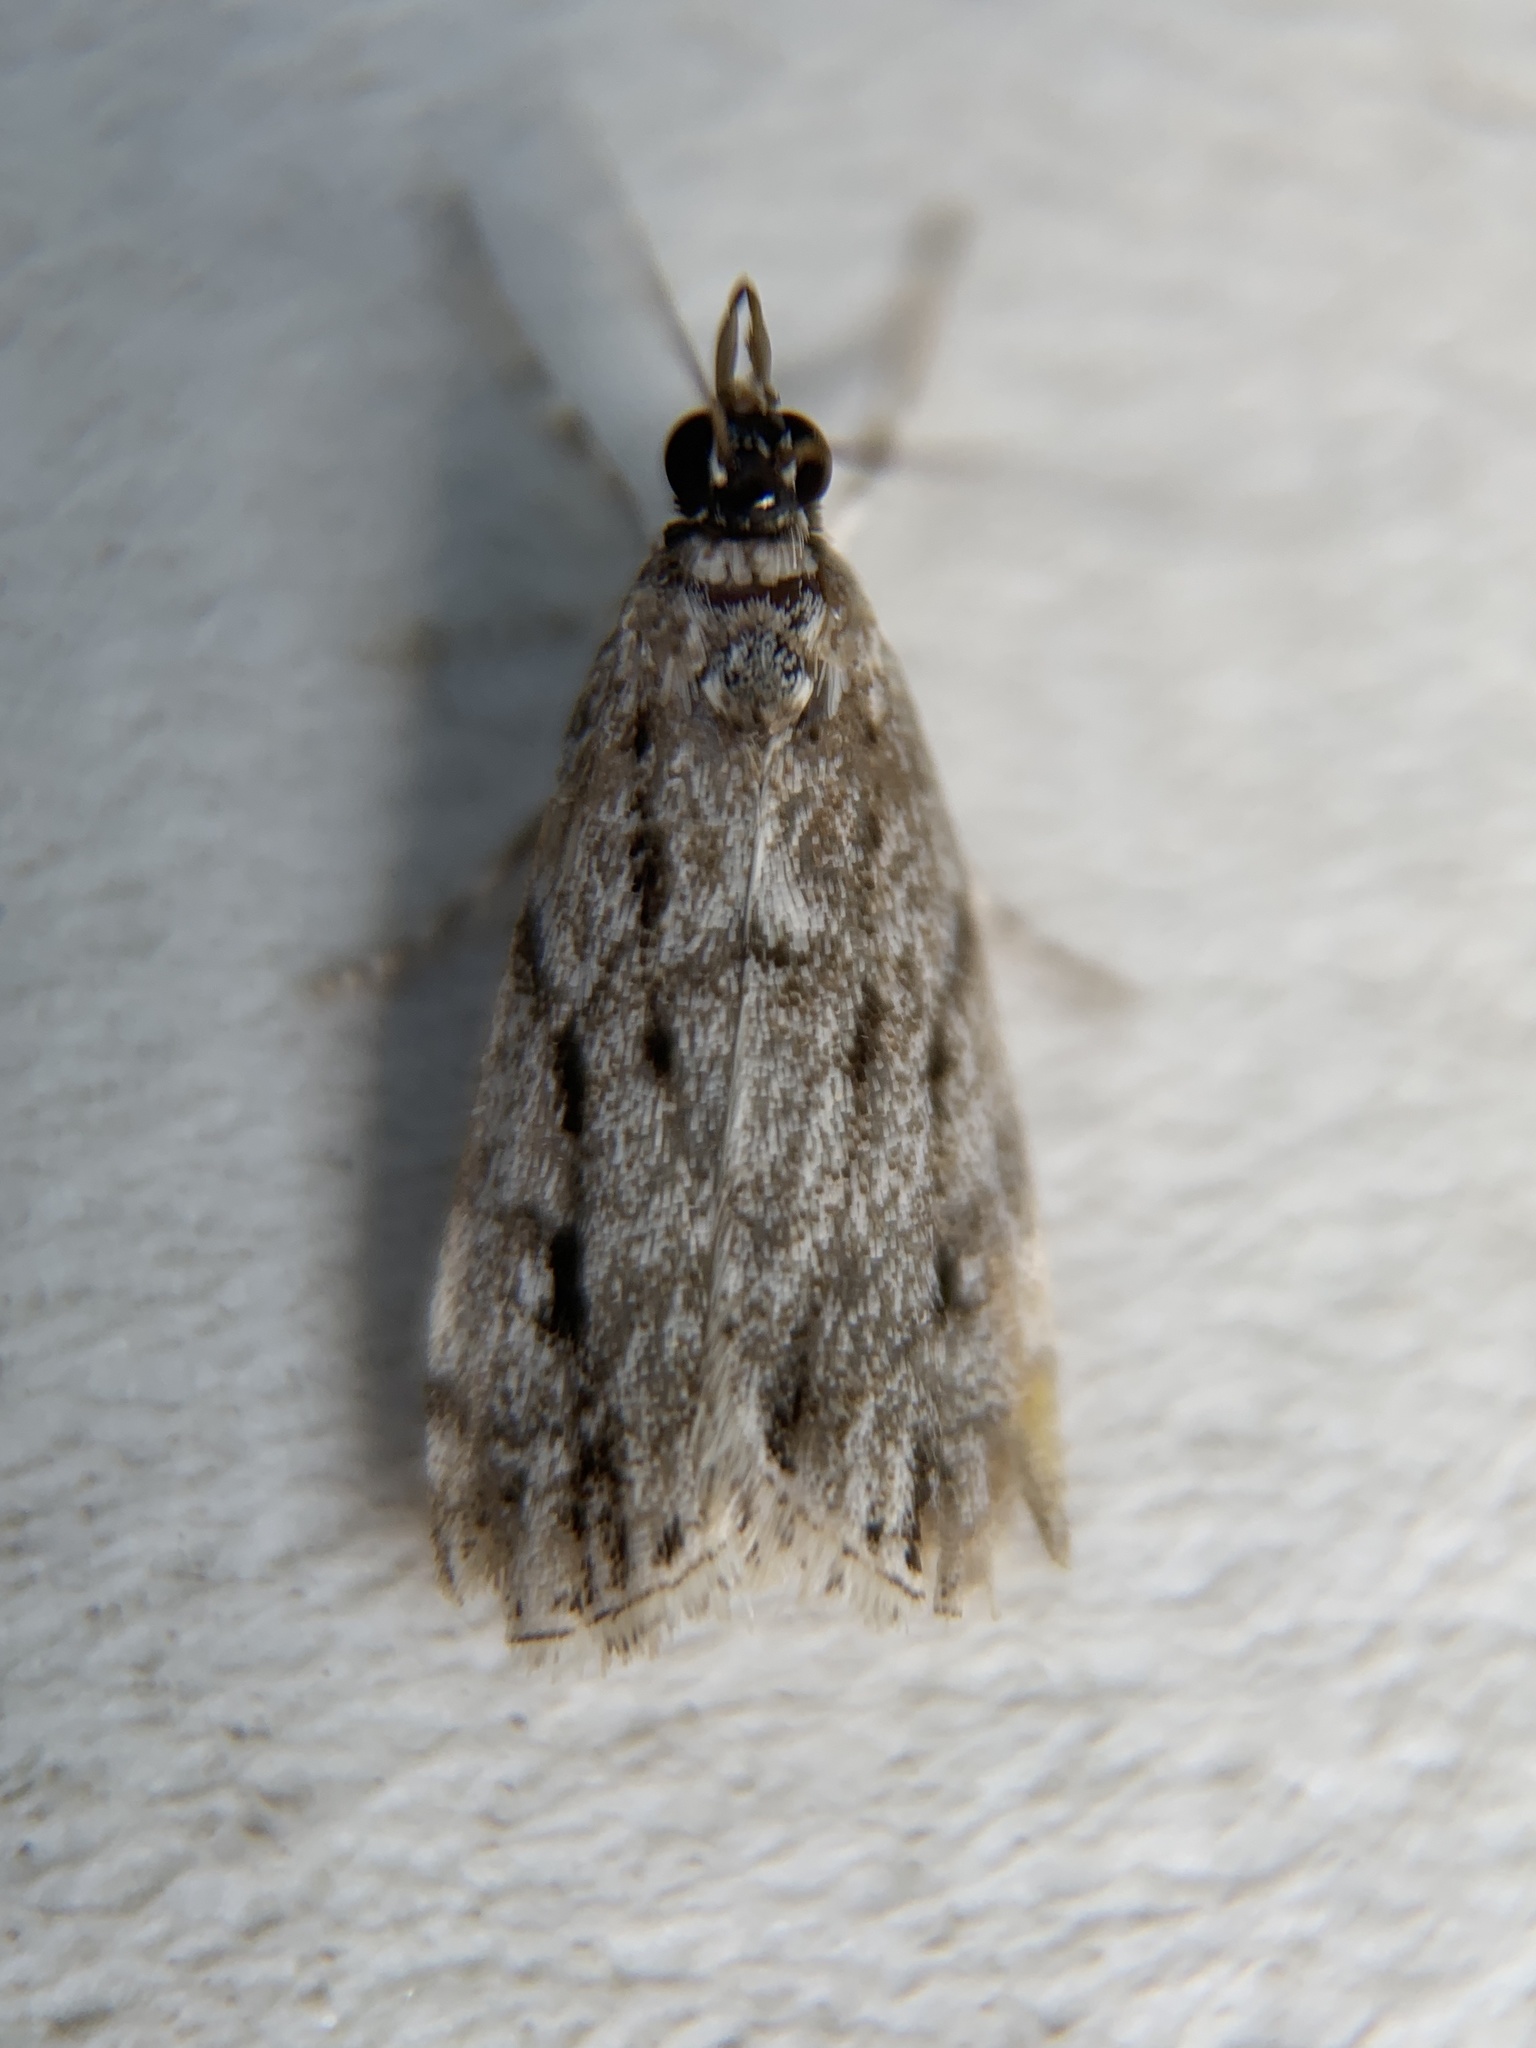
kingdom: Animalia
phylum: Arthropoda
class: Insecta
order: Lepidoptera
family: Crambidae
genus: Eudonia
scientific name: Eudonia strigalis
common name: Striped eudonia moth
